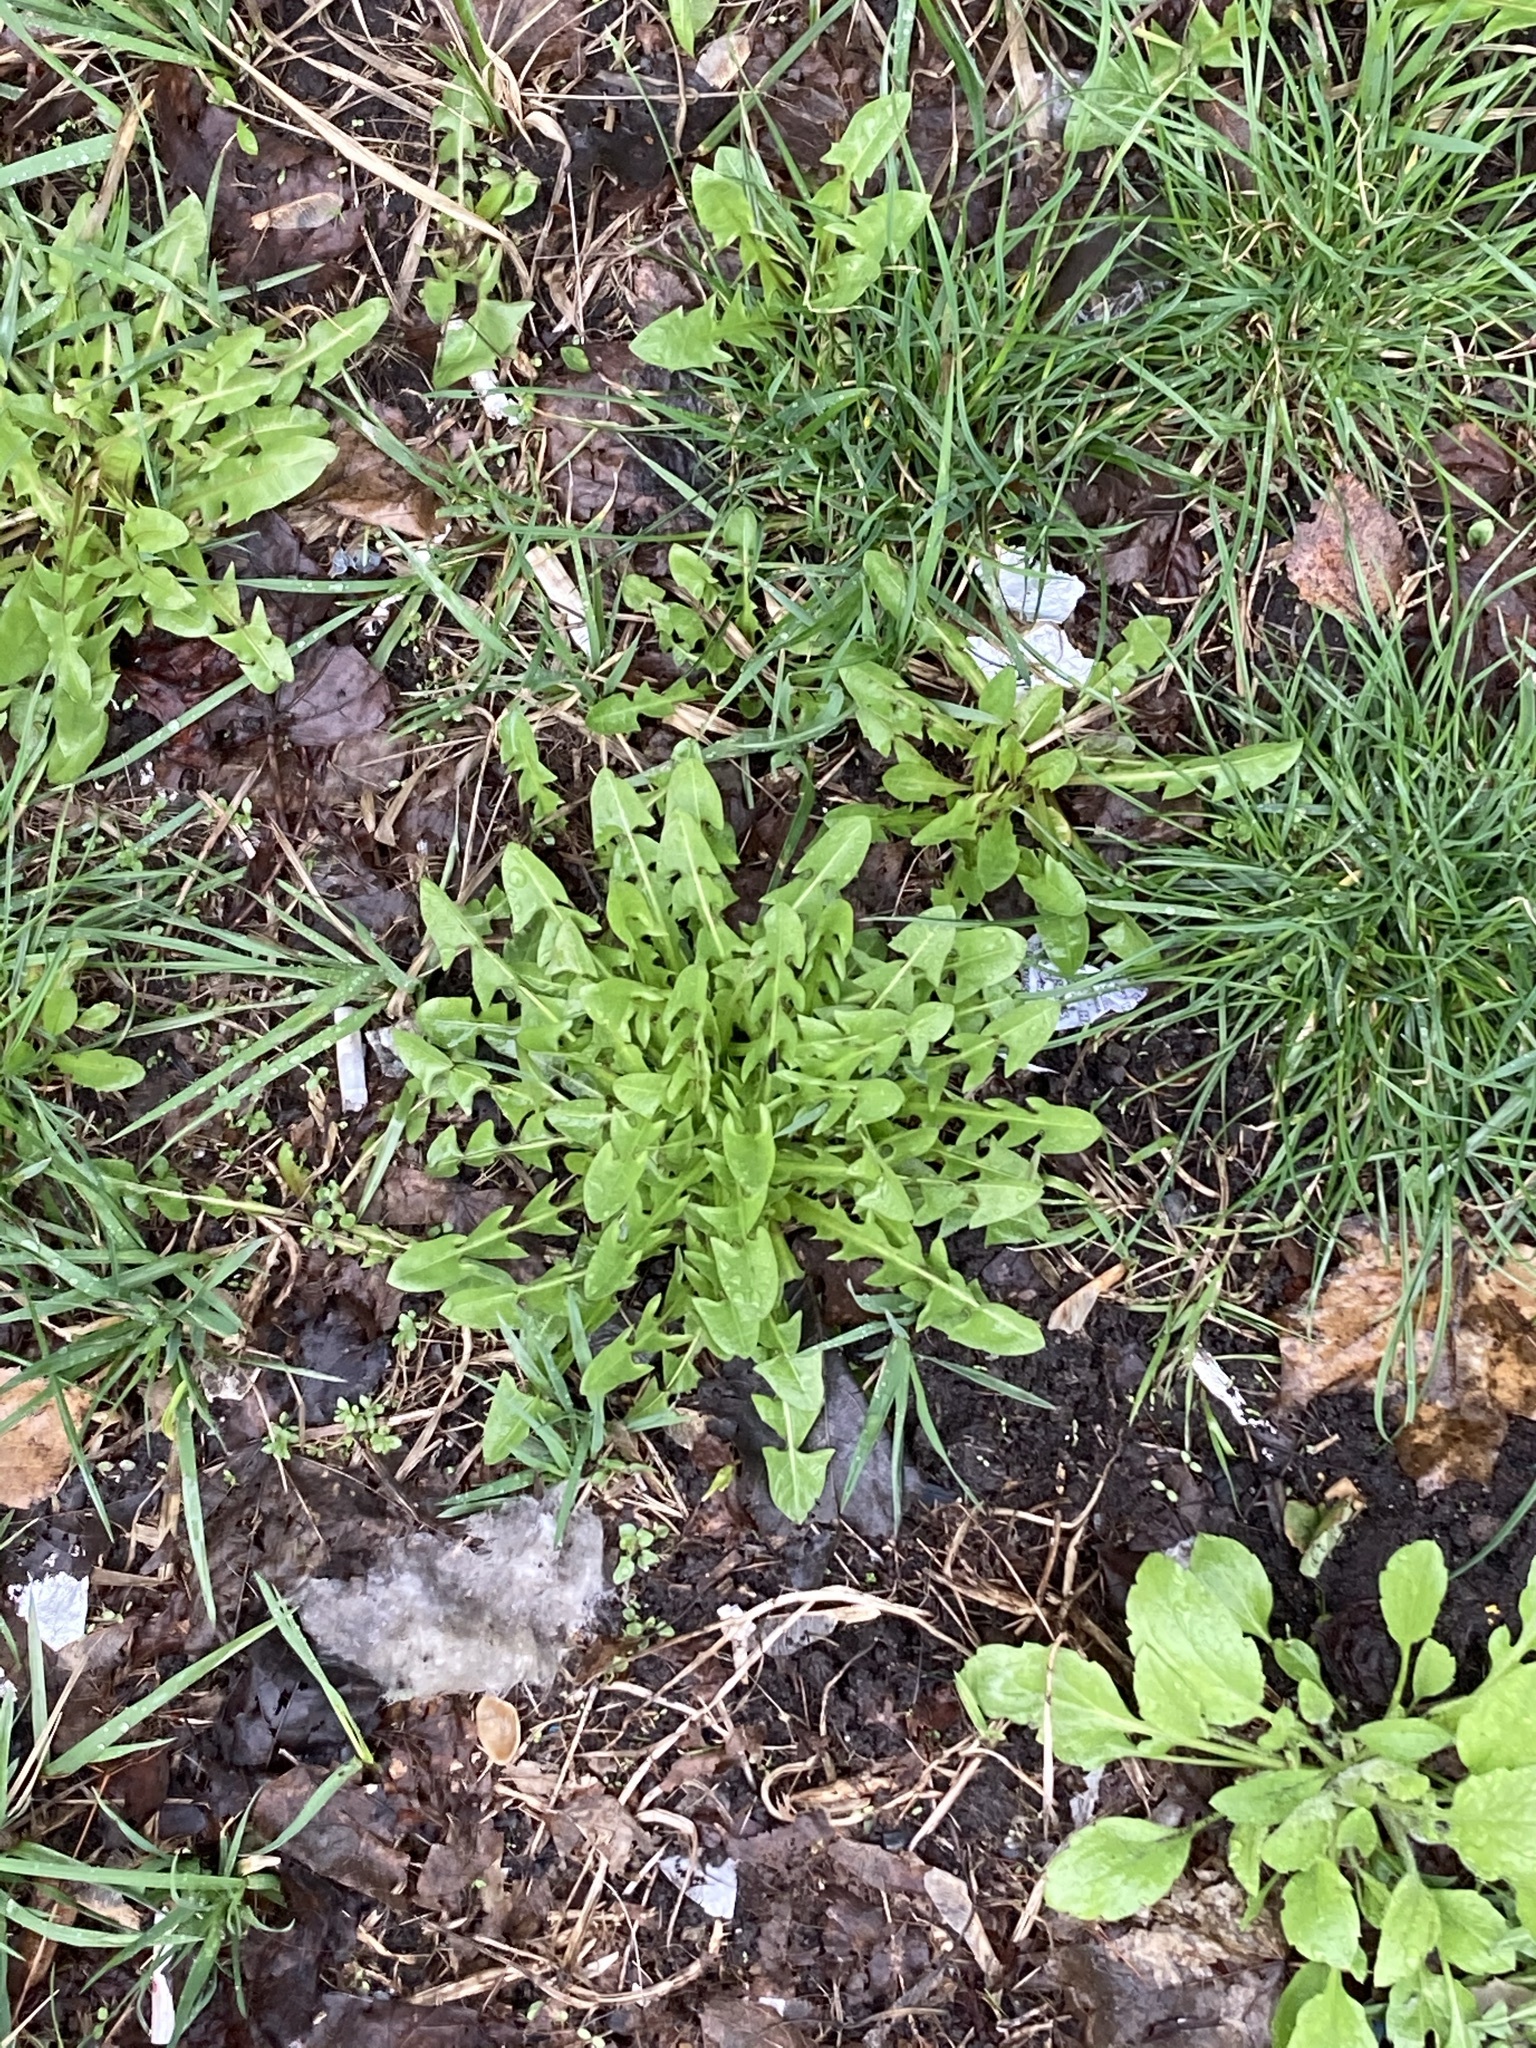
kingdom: Plantae
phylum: Tracheophyta
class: Magnoliopsida
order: Asterales
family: Asteraceae
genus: Taraxacum
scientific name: Taraxacum officinale
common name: Common dandelion
